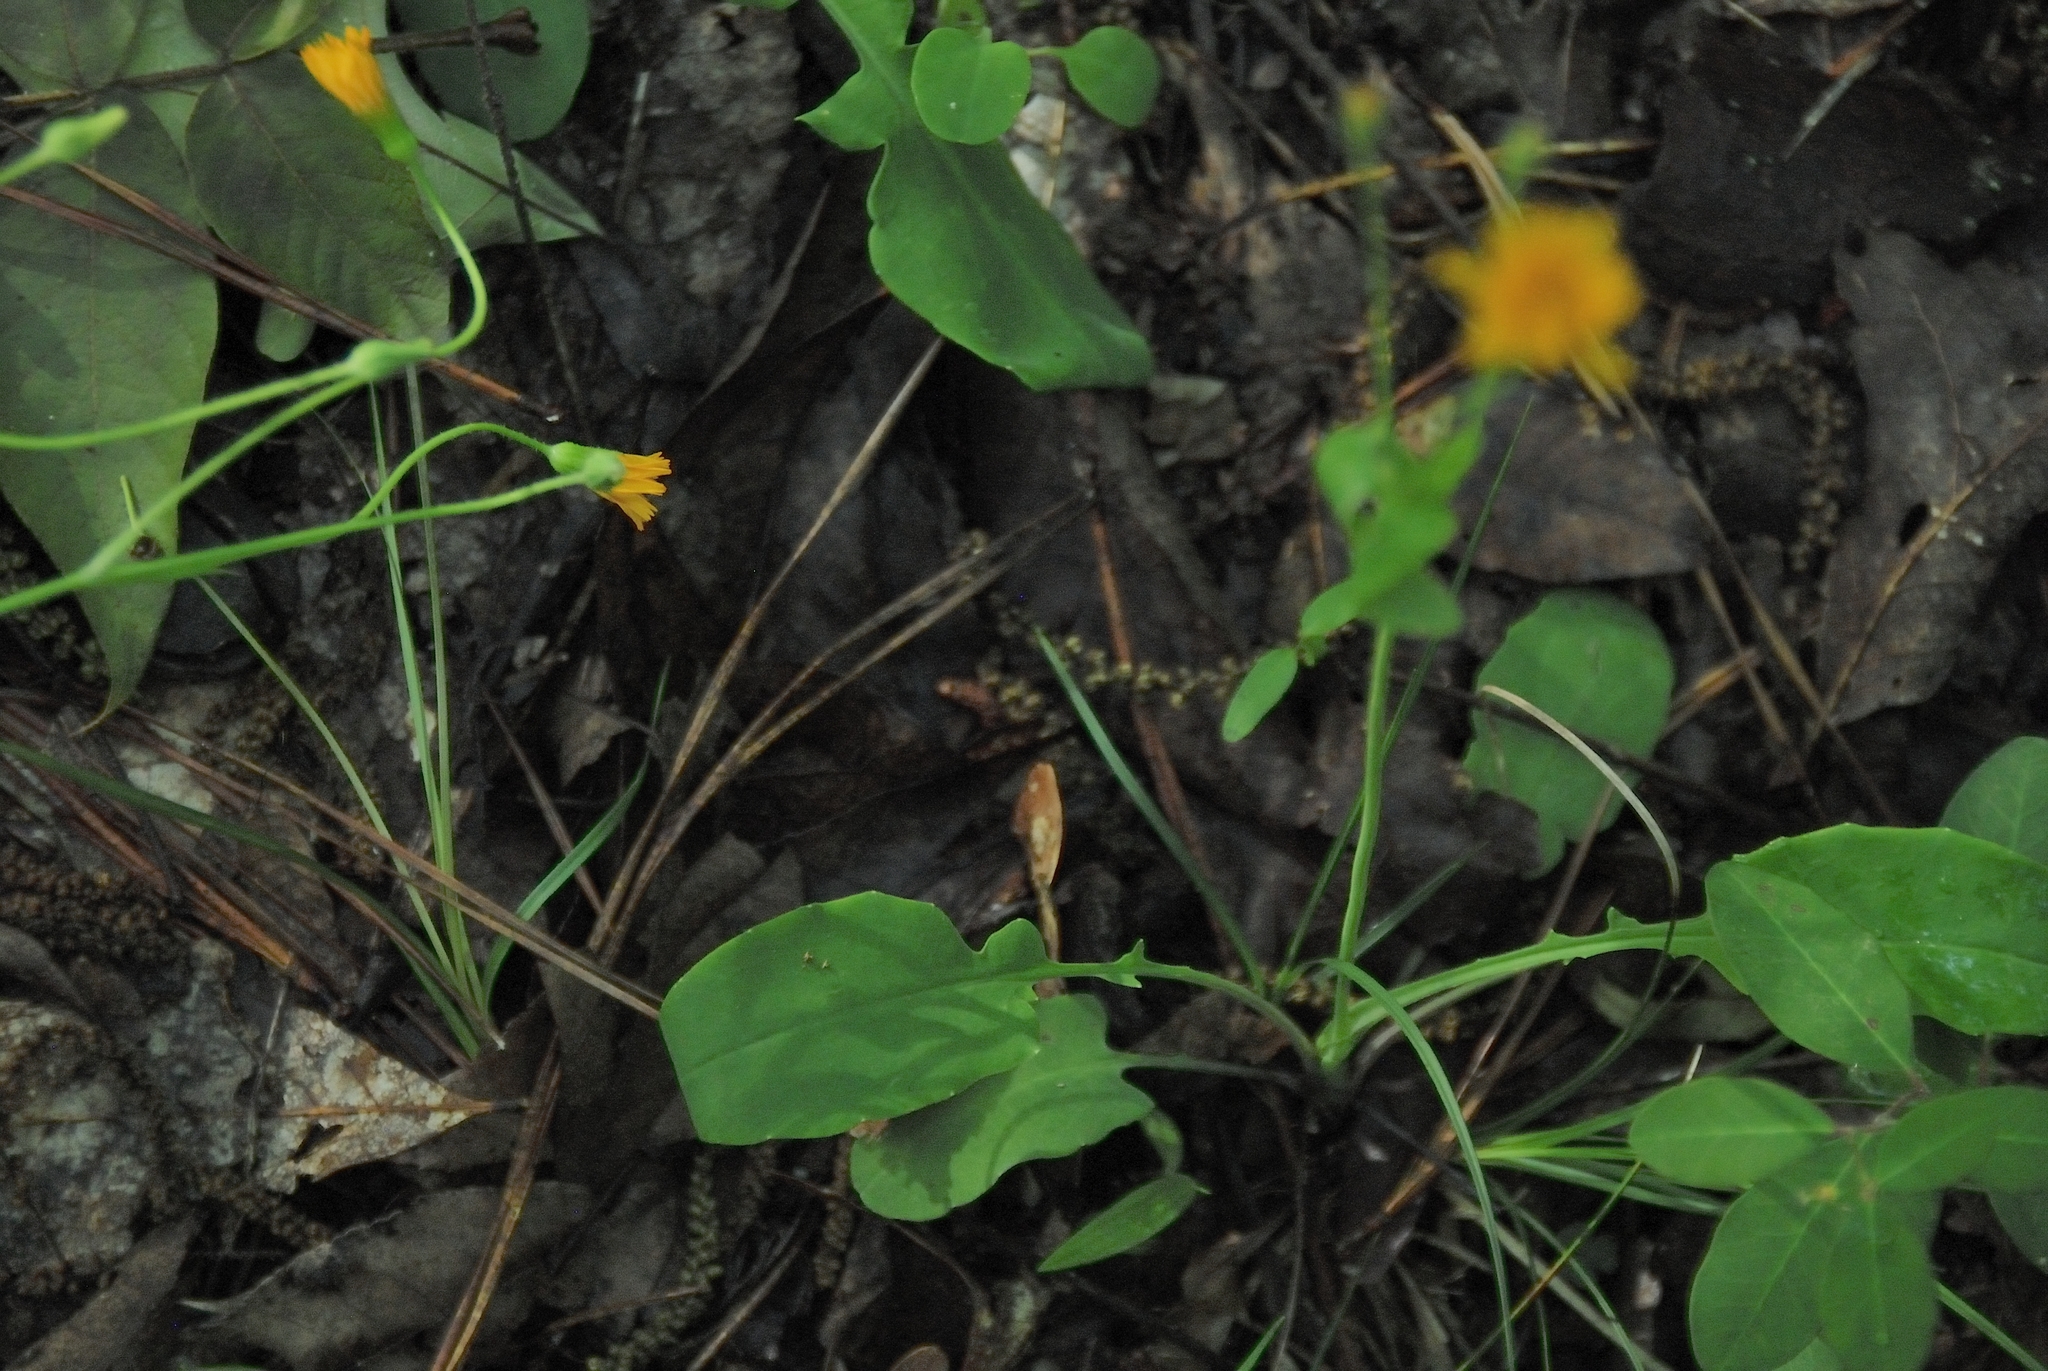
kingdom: Plantae
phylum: Tracheophyta
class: Magnoliopsida
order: Asterales
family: Asteraceae
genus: Krigia
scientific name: Krigia biflora
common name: Orange dwarf-dandelion
